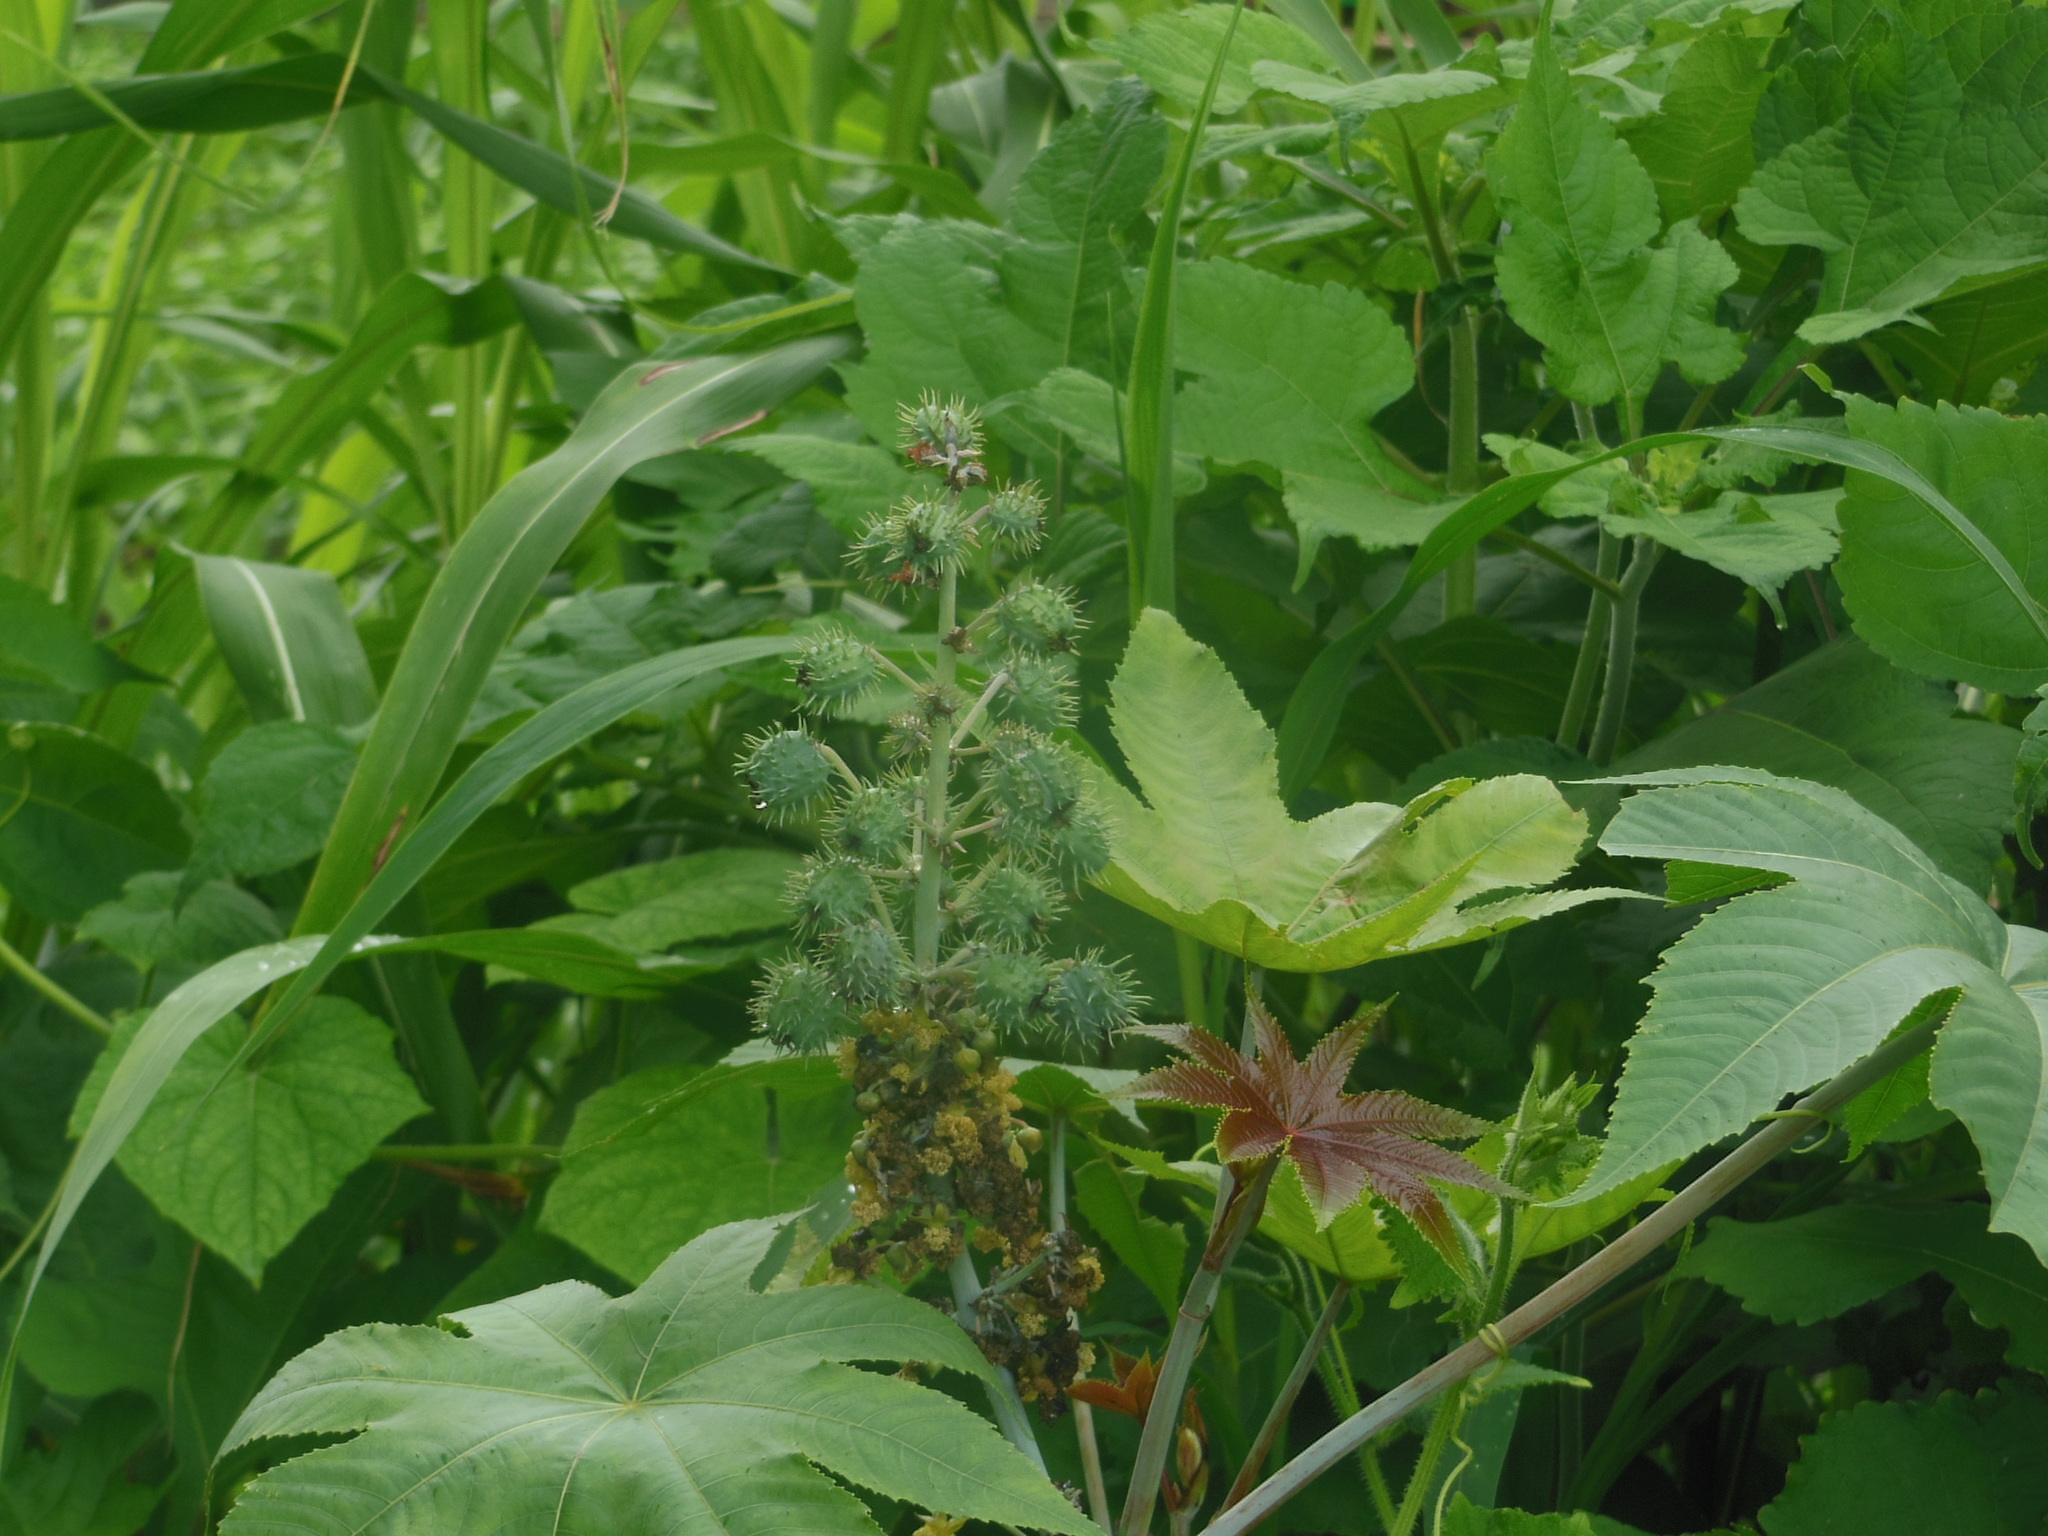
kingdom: Plantae
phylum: Tracheophyta
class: Magnoliopsida
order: Malpighiales
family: Euphorbiaceae
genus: Ricinus
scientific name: Ricinus communis
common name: Castor-oil-plant
